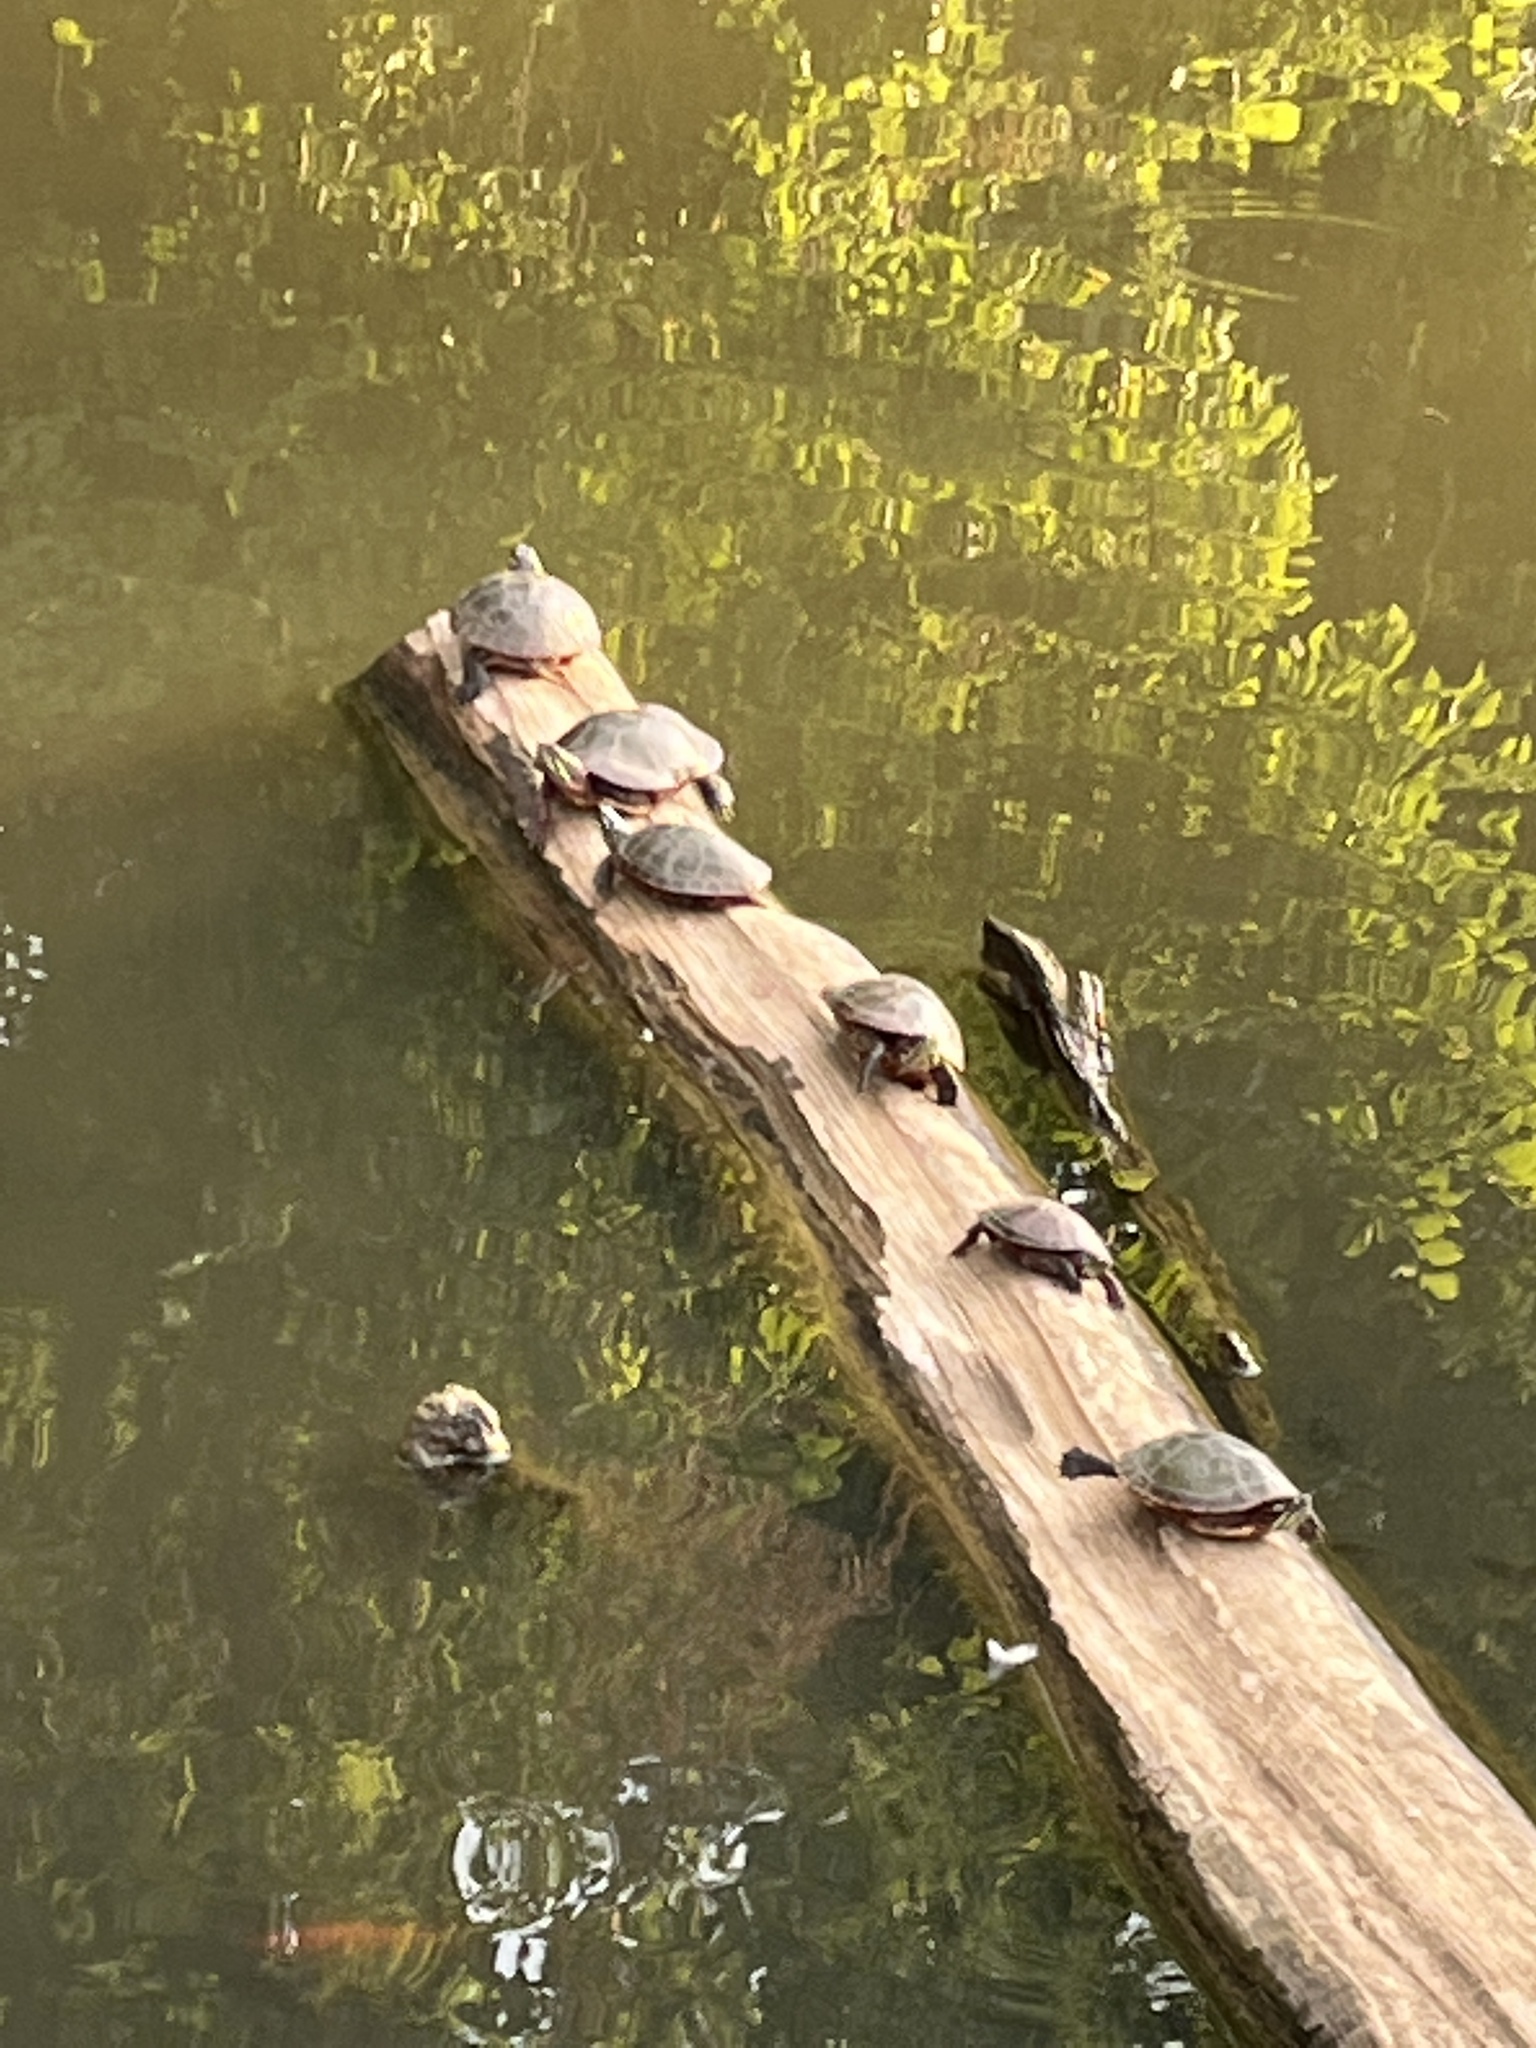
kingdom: Animalia
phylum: Chordata
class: Testudines
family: Emydidae
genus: Chrysemys
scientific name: Chrysemys picta
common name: Painted turtle
